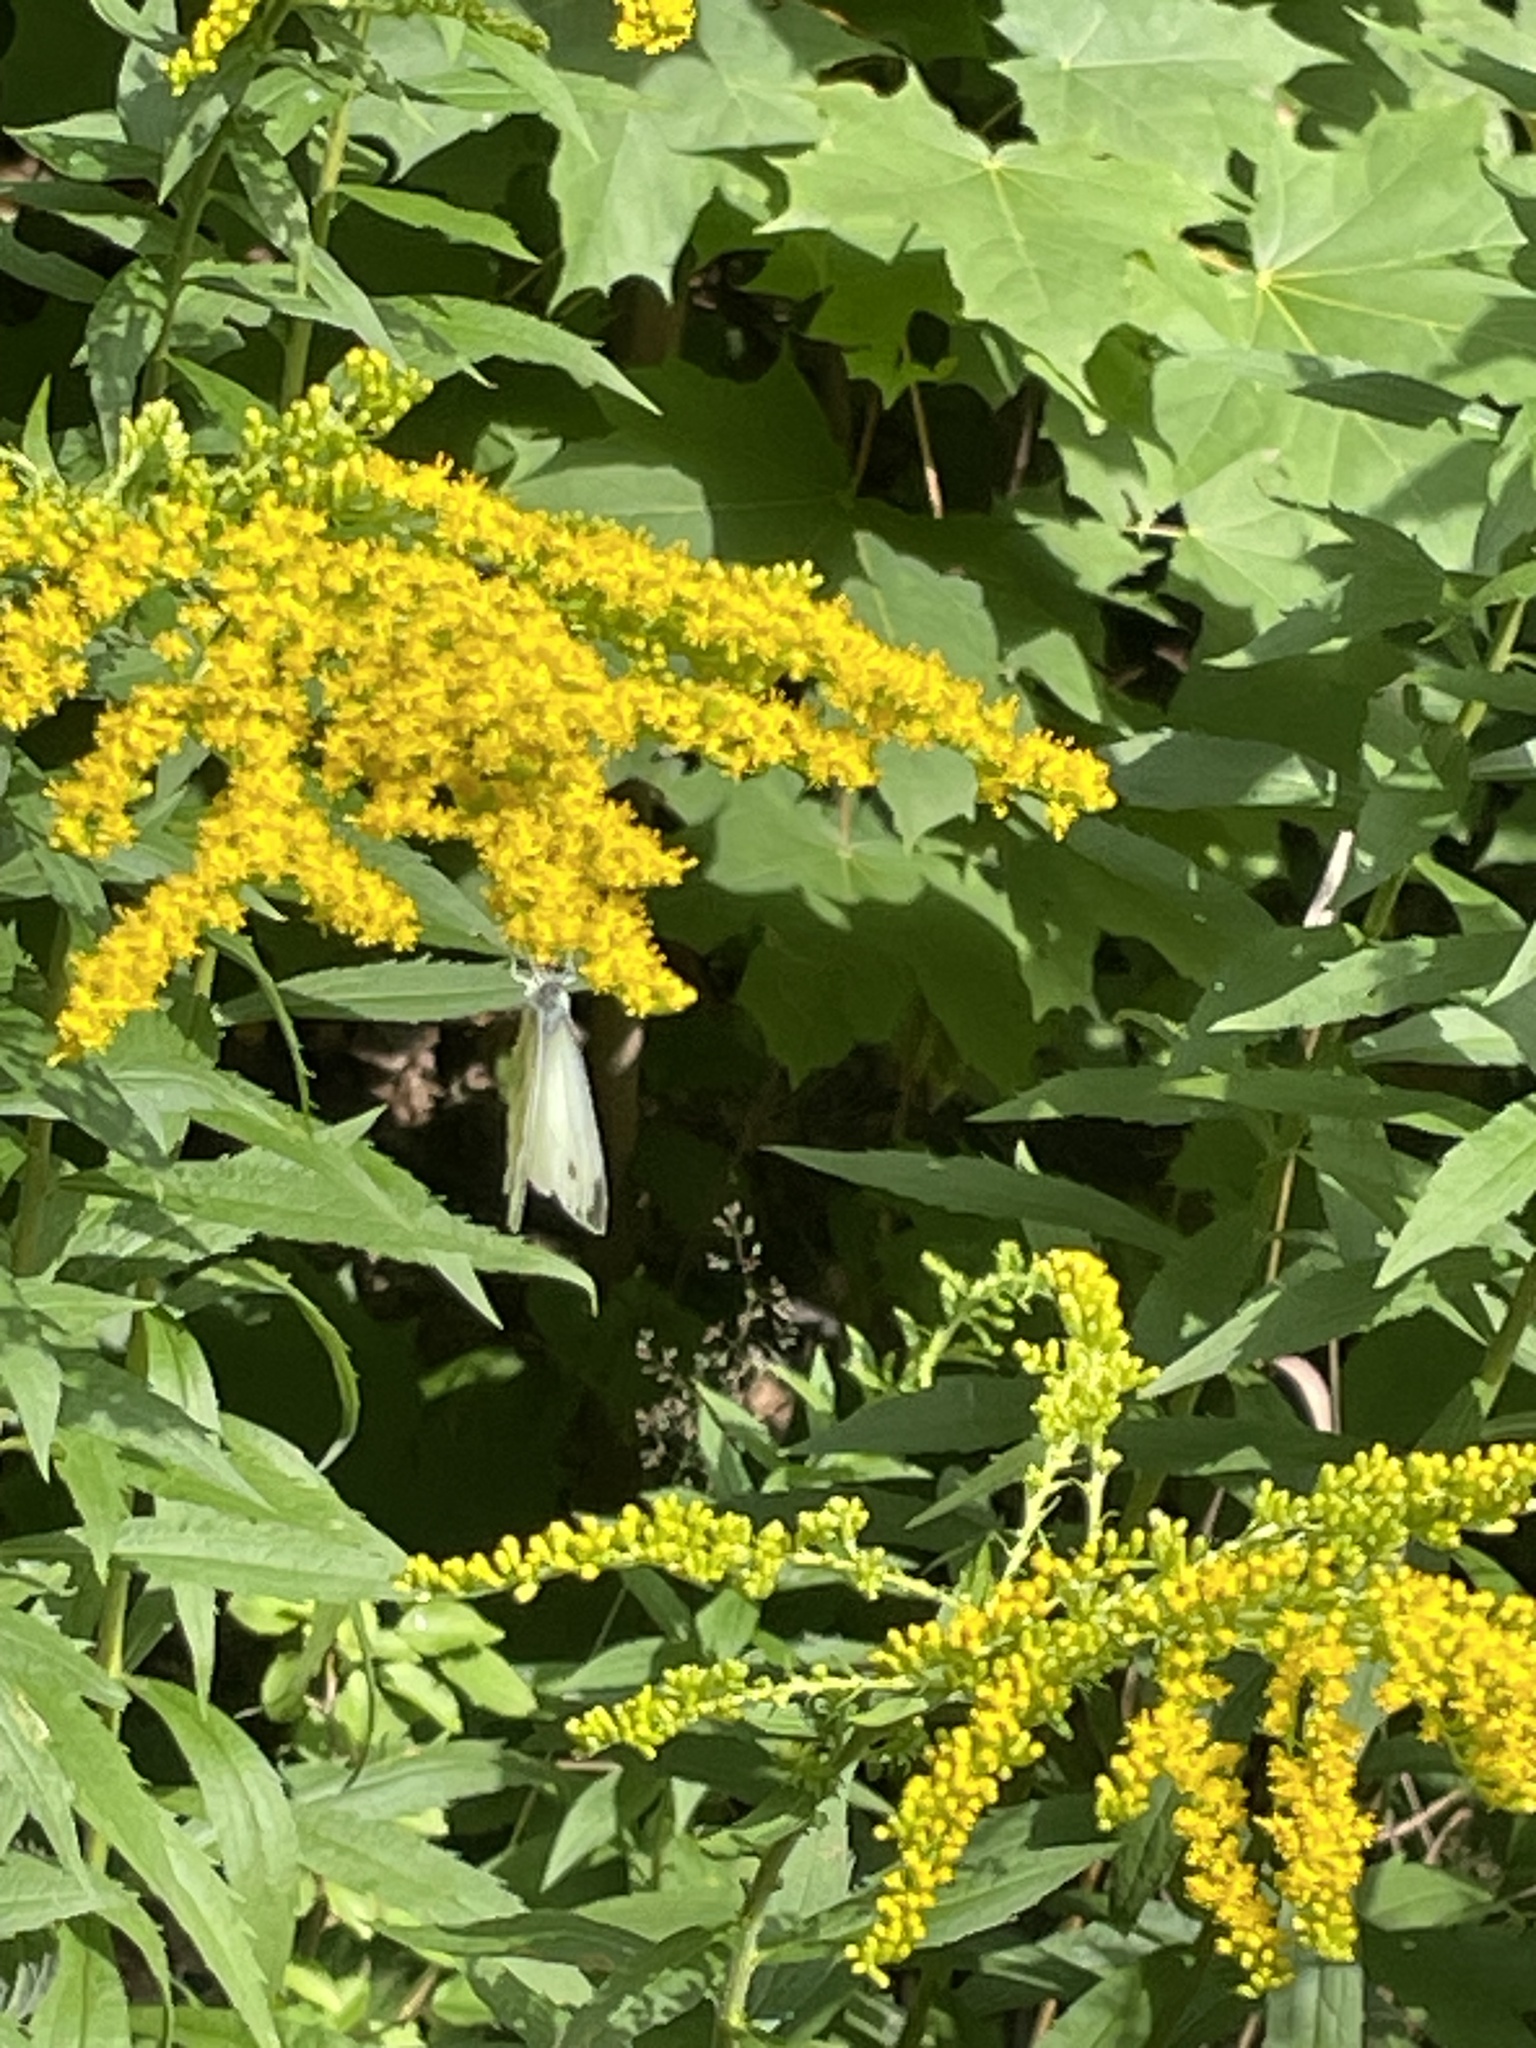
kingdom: Animalia
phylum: Arthropoda
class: Insecta
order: Lepidoptera
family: Pieridae
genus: Pieris
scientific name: Pieris napi
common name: Green-veined white
